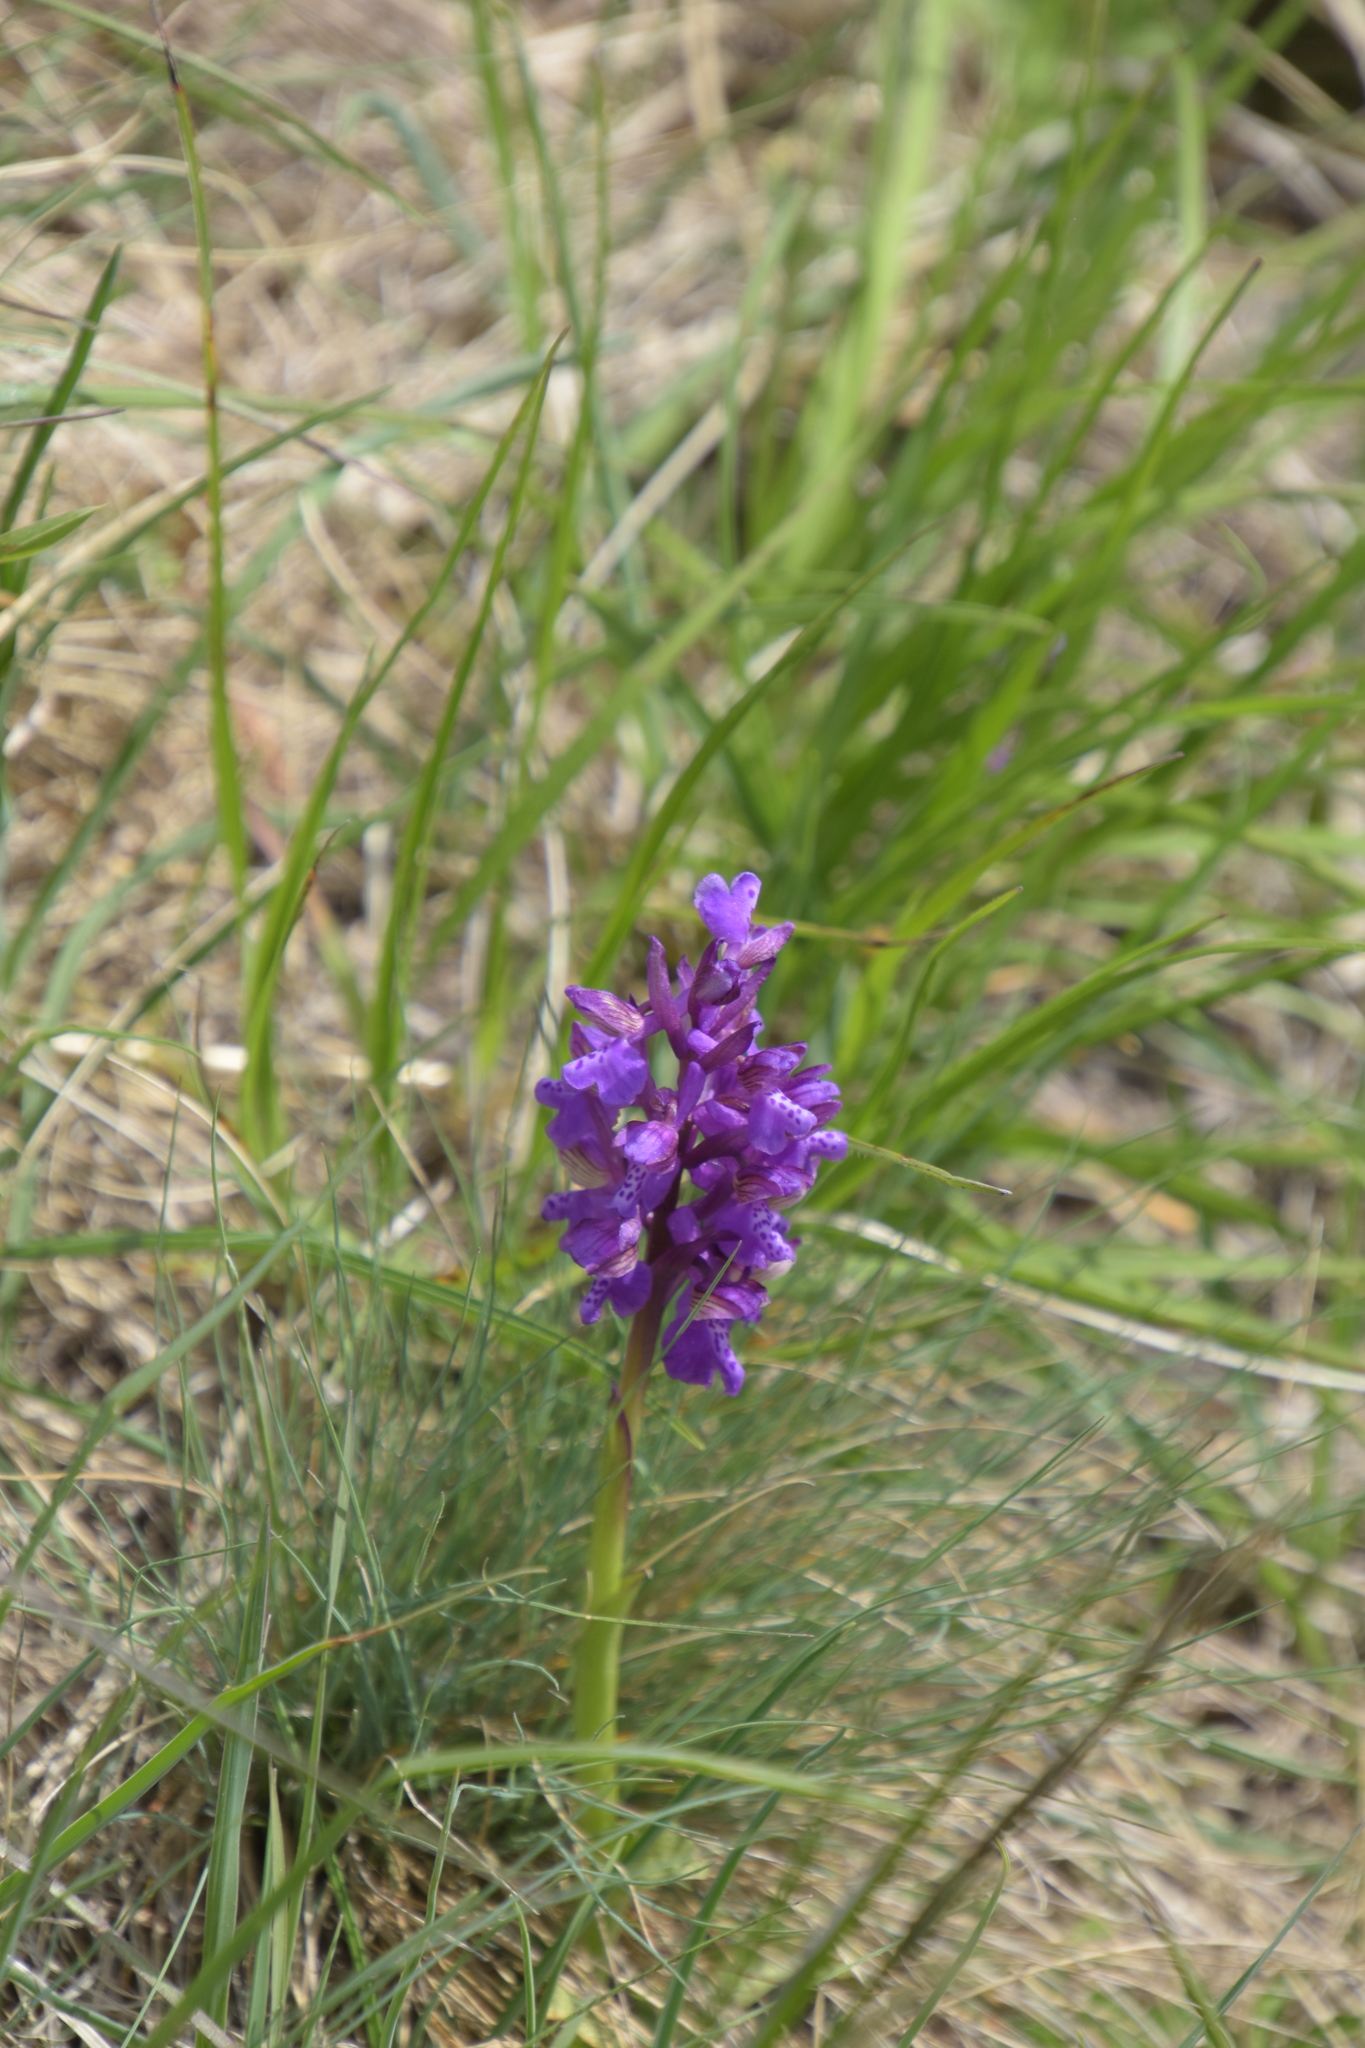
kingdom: Plantae
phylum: Tracheophyta
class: Liliopsida
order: Asparagales
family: Orchidaceae
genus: Anacamptis
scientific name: Anacamptis morio
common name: Green-winged orchid
